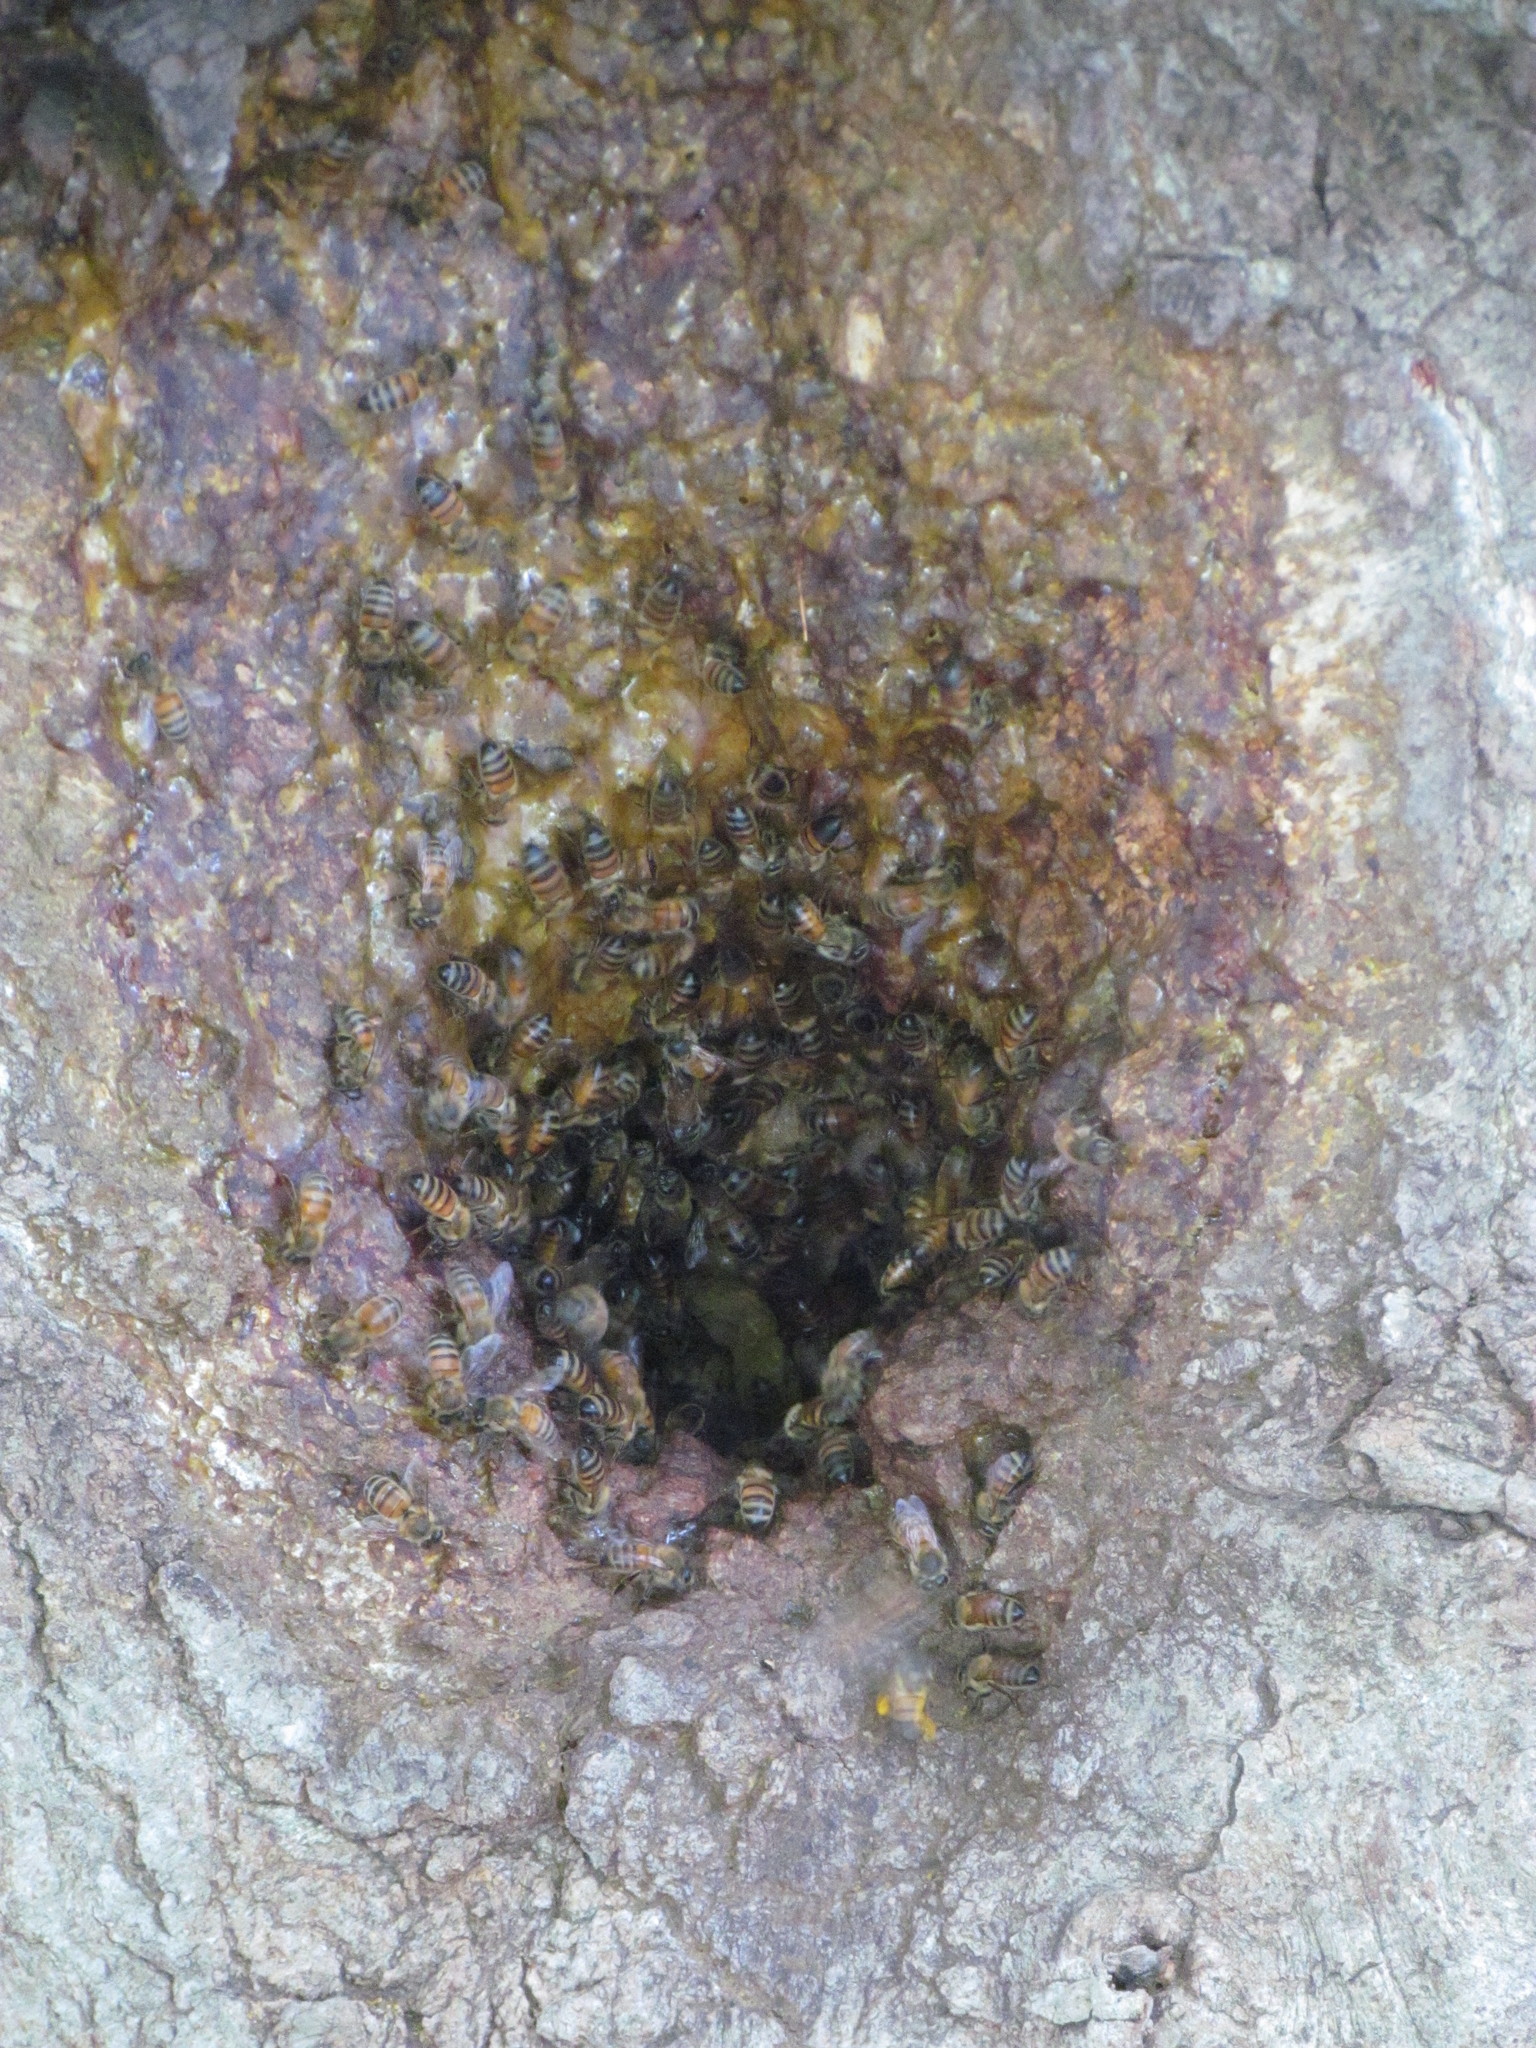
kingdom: Animalia
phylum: Arthropoda
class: Insecta
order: Hymenoptera
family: Apidae
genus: Apis
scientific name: Apis mellifera
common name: Honey bee
